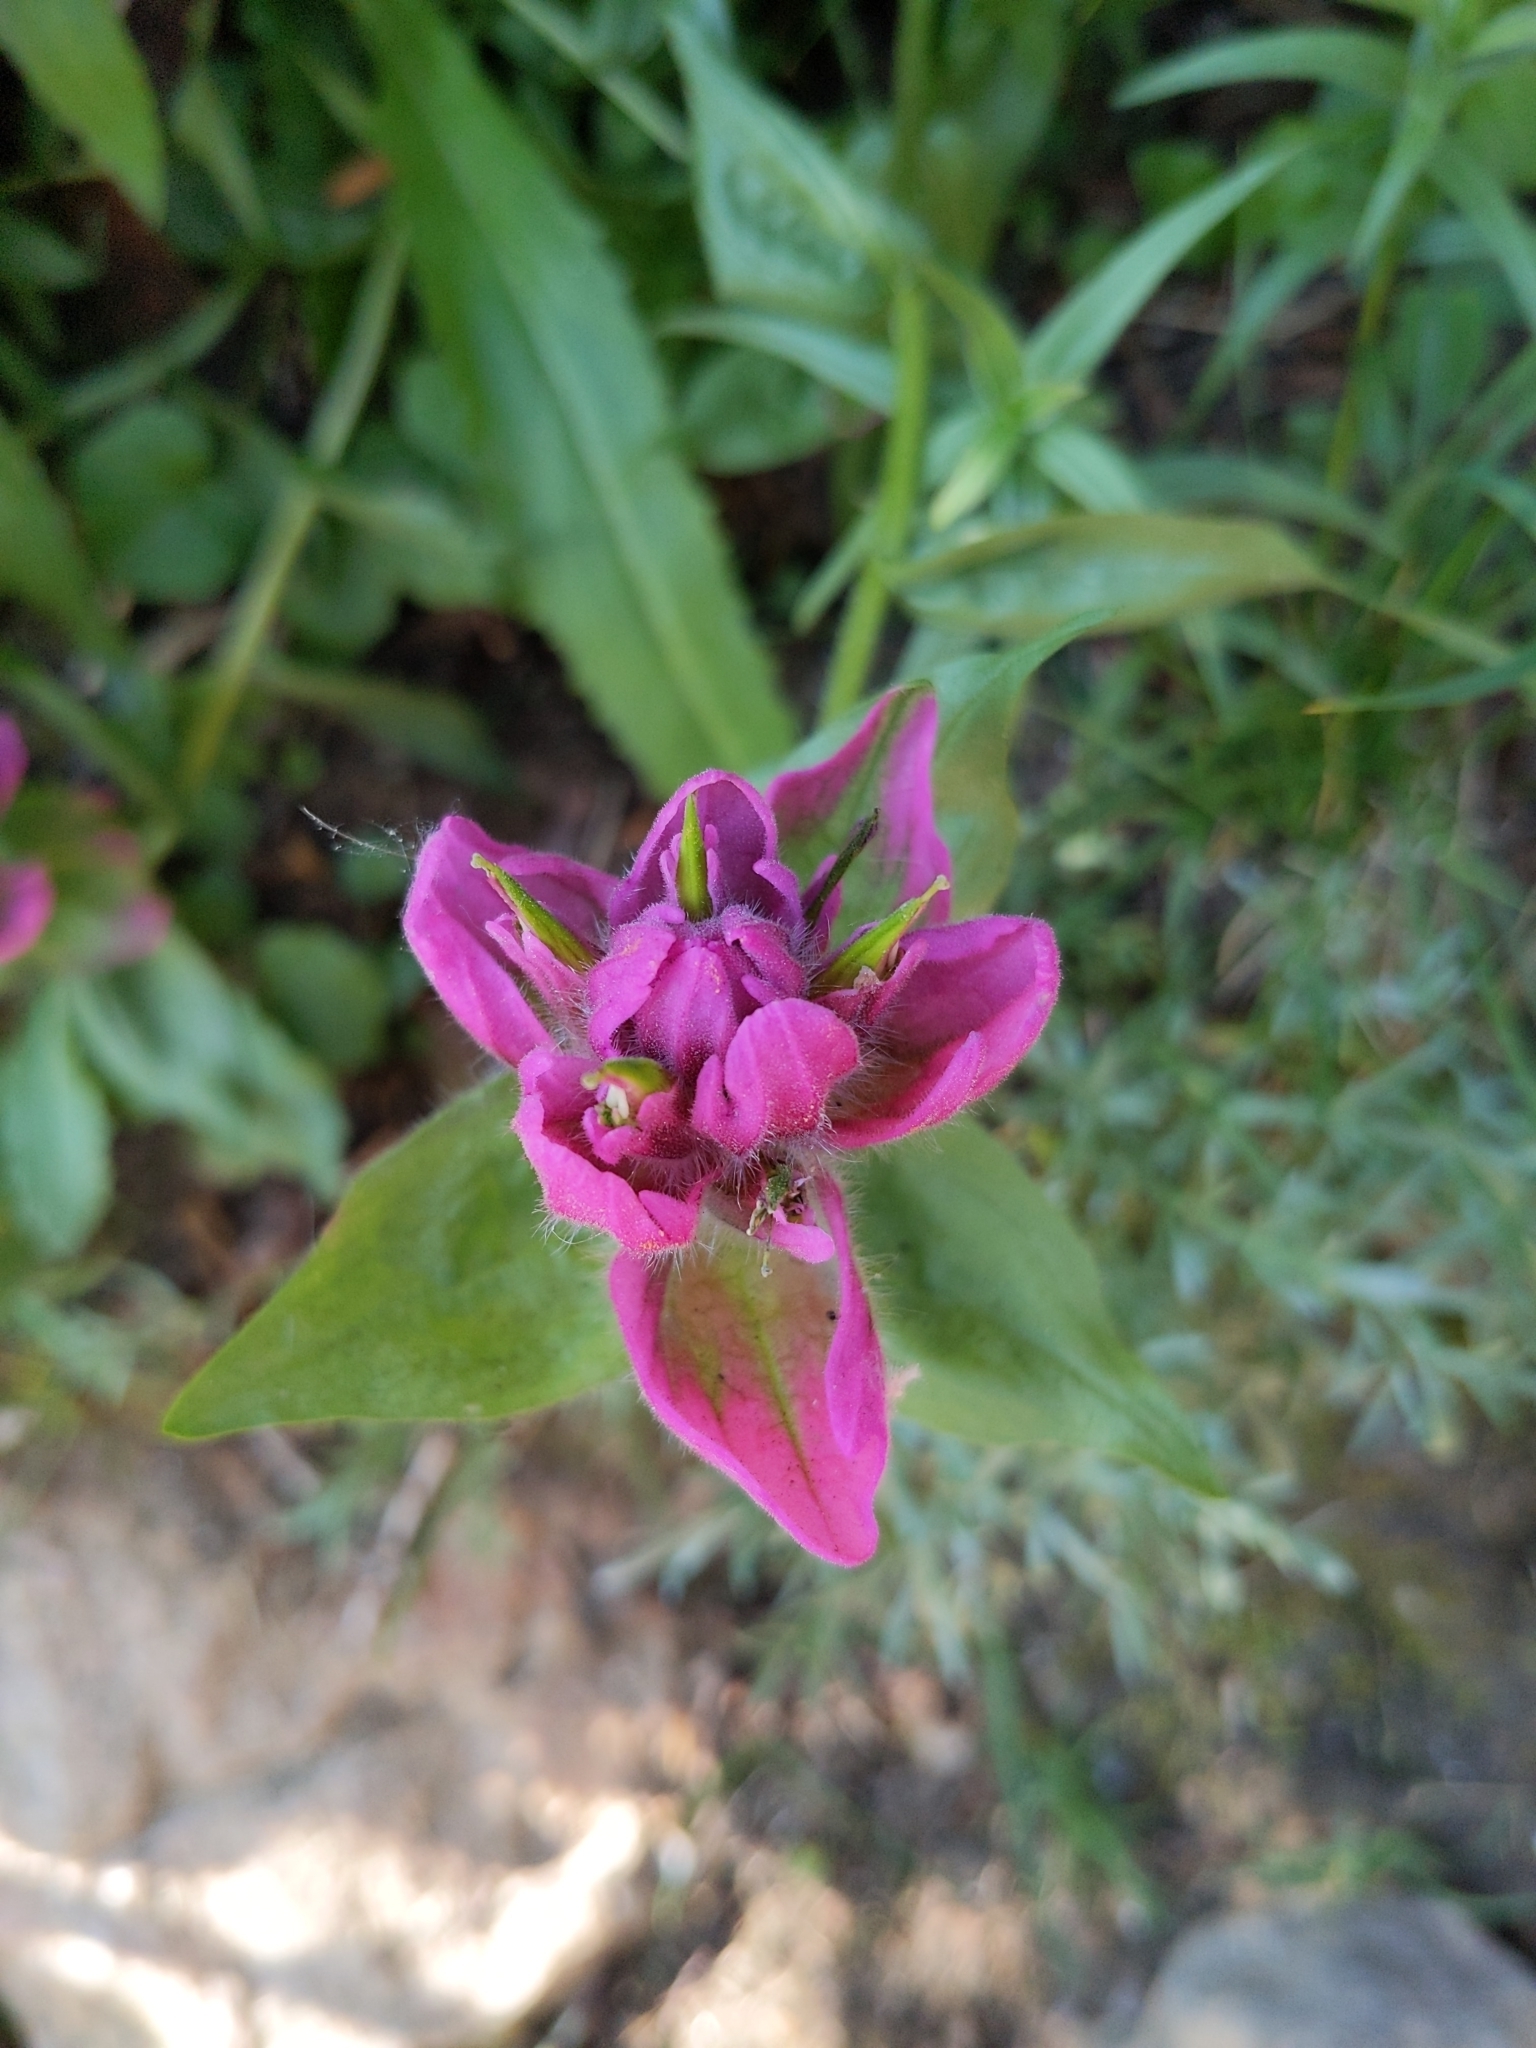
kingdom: Plantae
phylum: Tracheophyta
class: Magnoliopsida
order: Lamiales
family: Orobanchaceae
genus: Castilleja
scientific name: Castilleja rhexifolia
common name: Rocky mountain paintbrush
